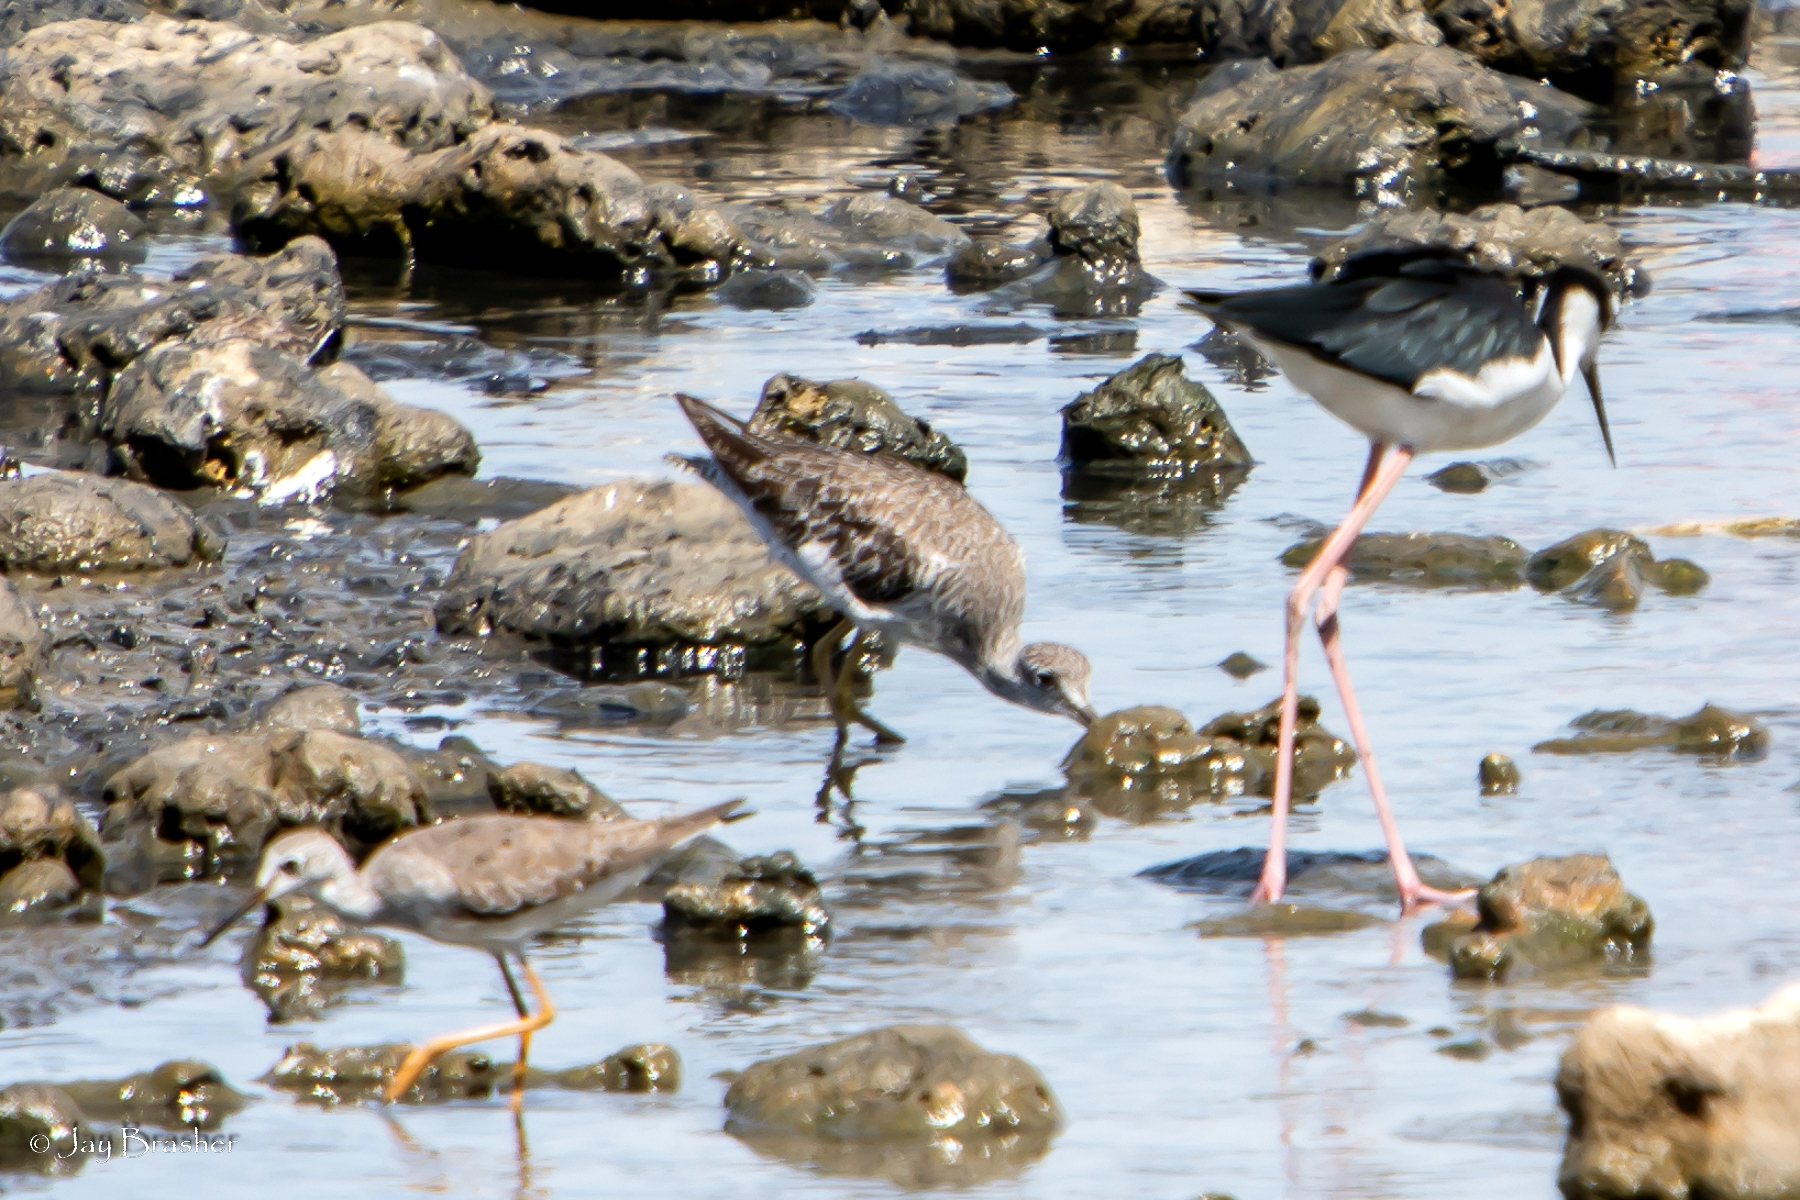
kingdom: Animalia
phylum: Chordata
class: Aves
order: Charadriiformes
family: Scolopacidae
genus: Tringa
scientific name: Tringa flavipes
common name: Lesser yellowlegs
